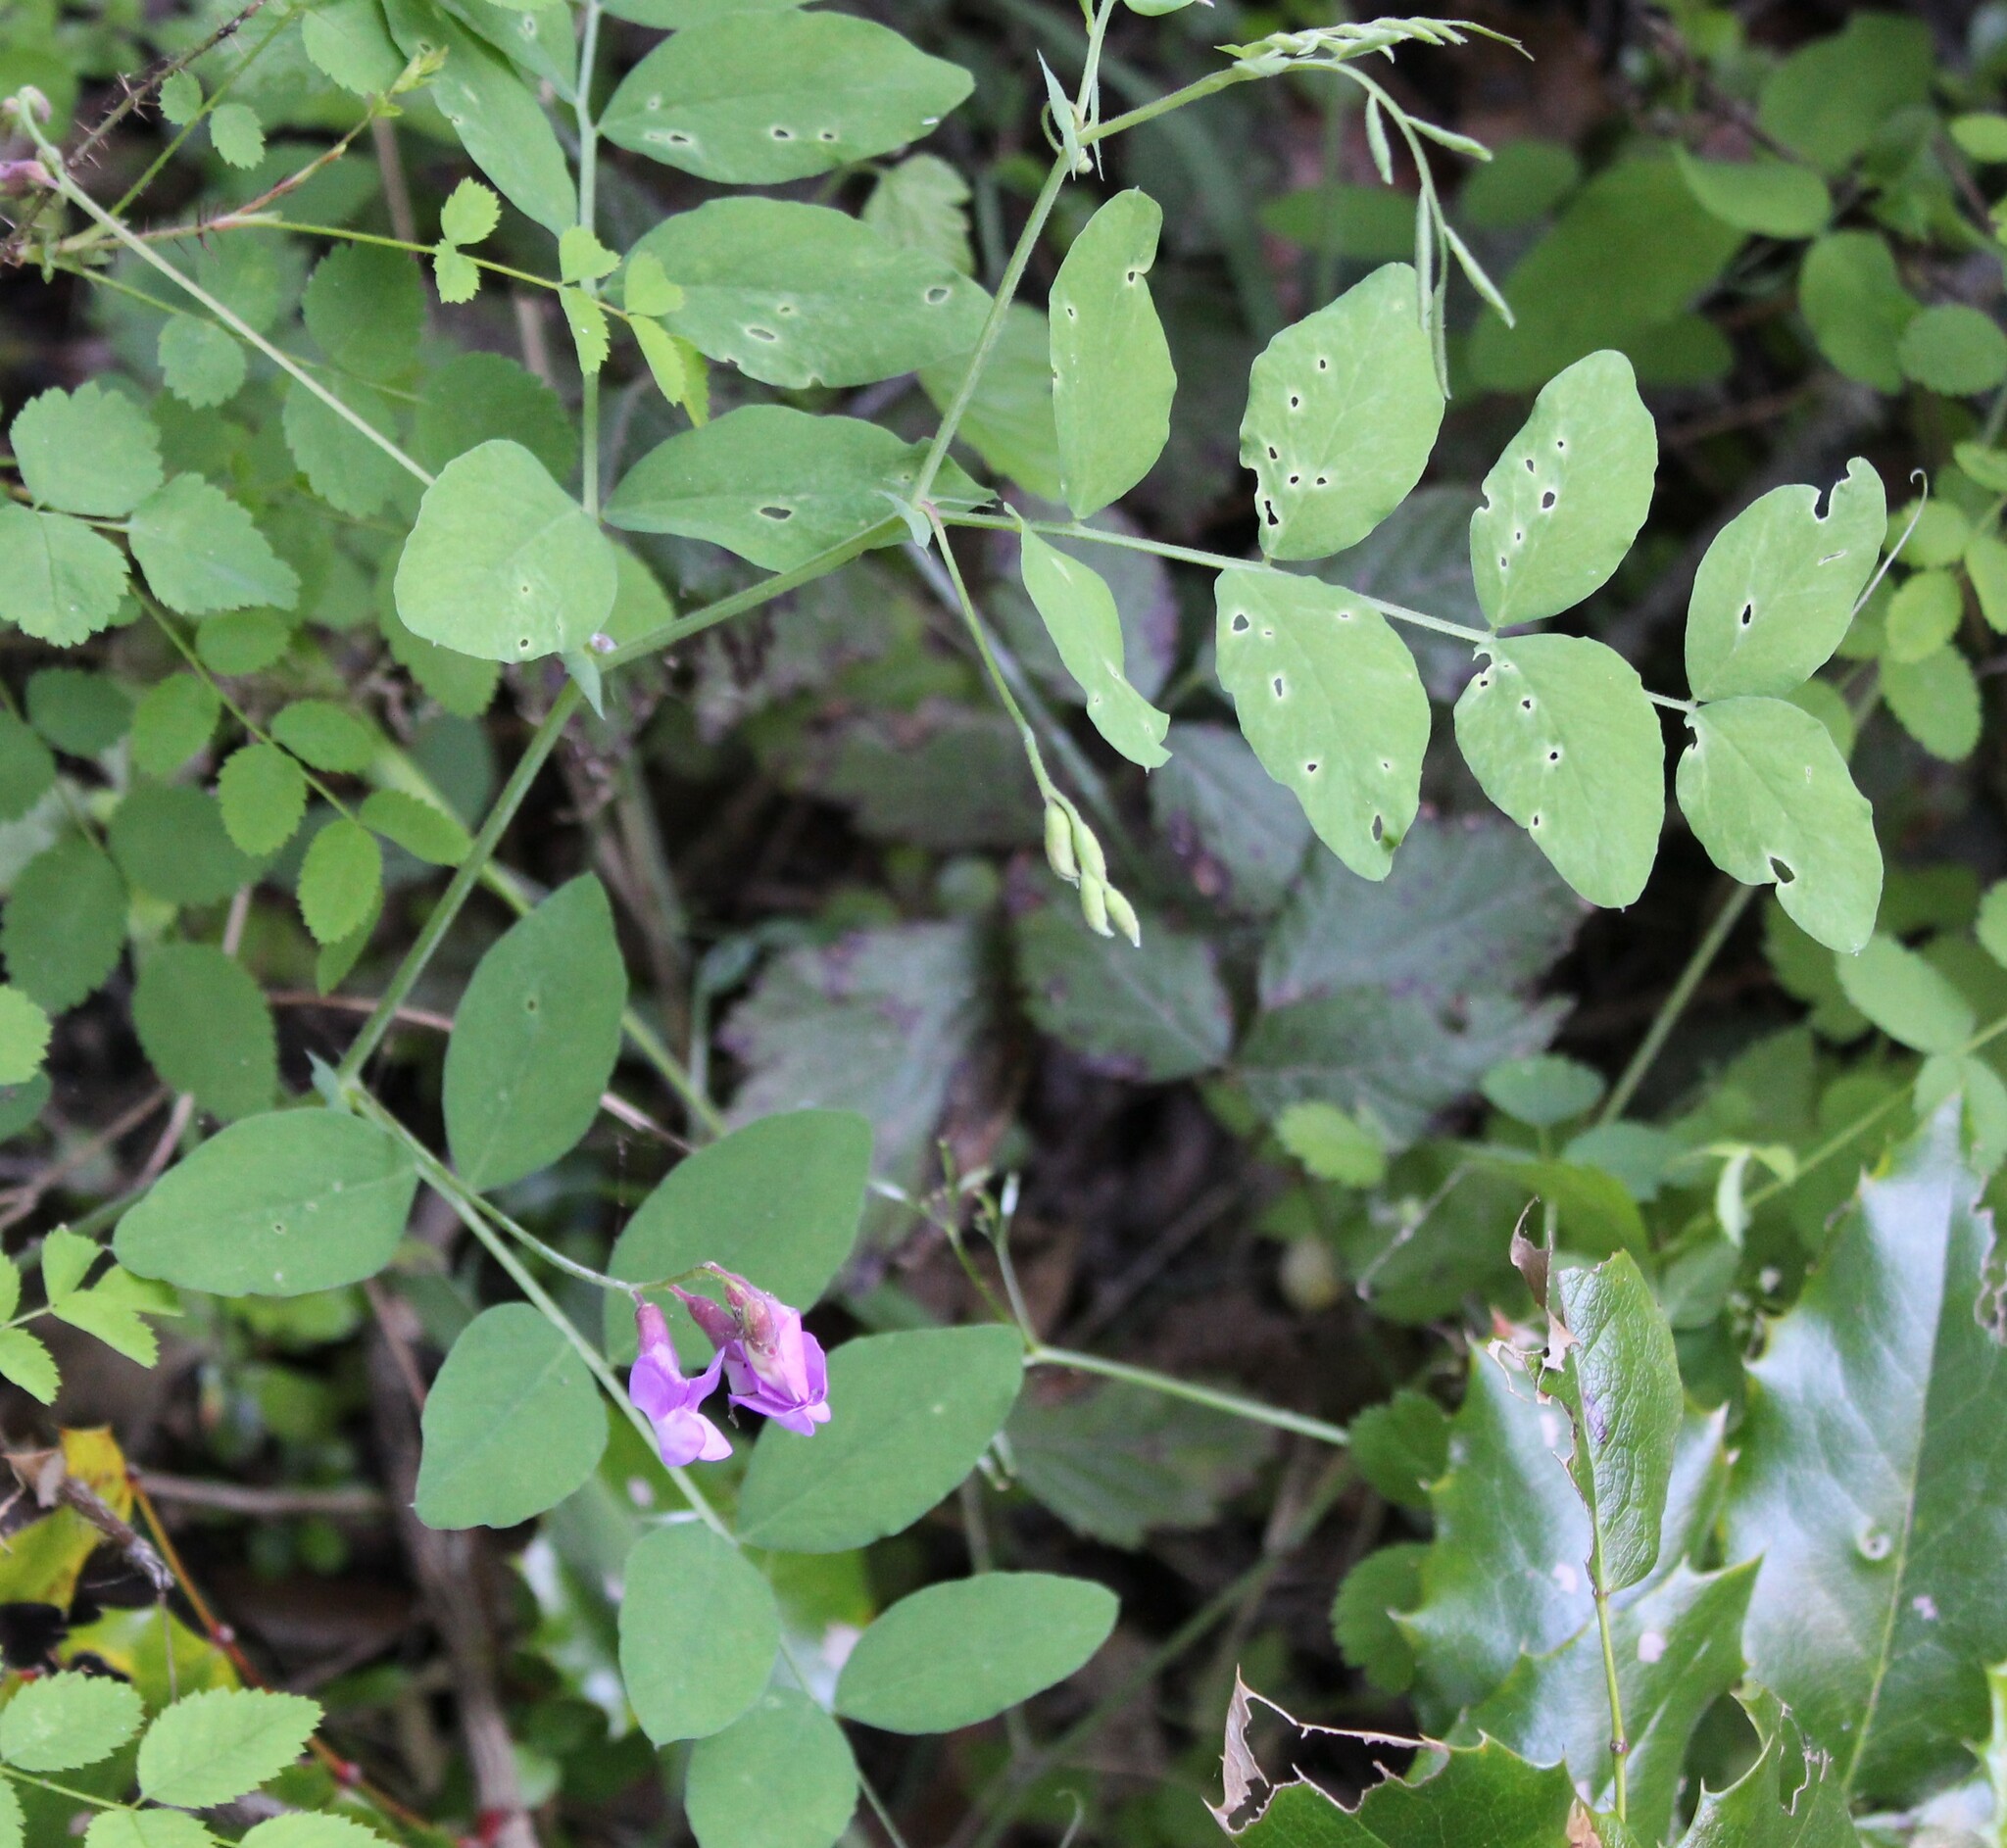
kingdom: Plantae
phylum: Tracheophyta
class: Magnoliopsida
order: Fabales
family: Fabaceae
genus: Lathyrus
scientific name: Lathyrus nevadensis
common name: Sierra nevada peavine
